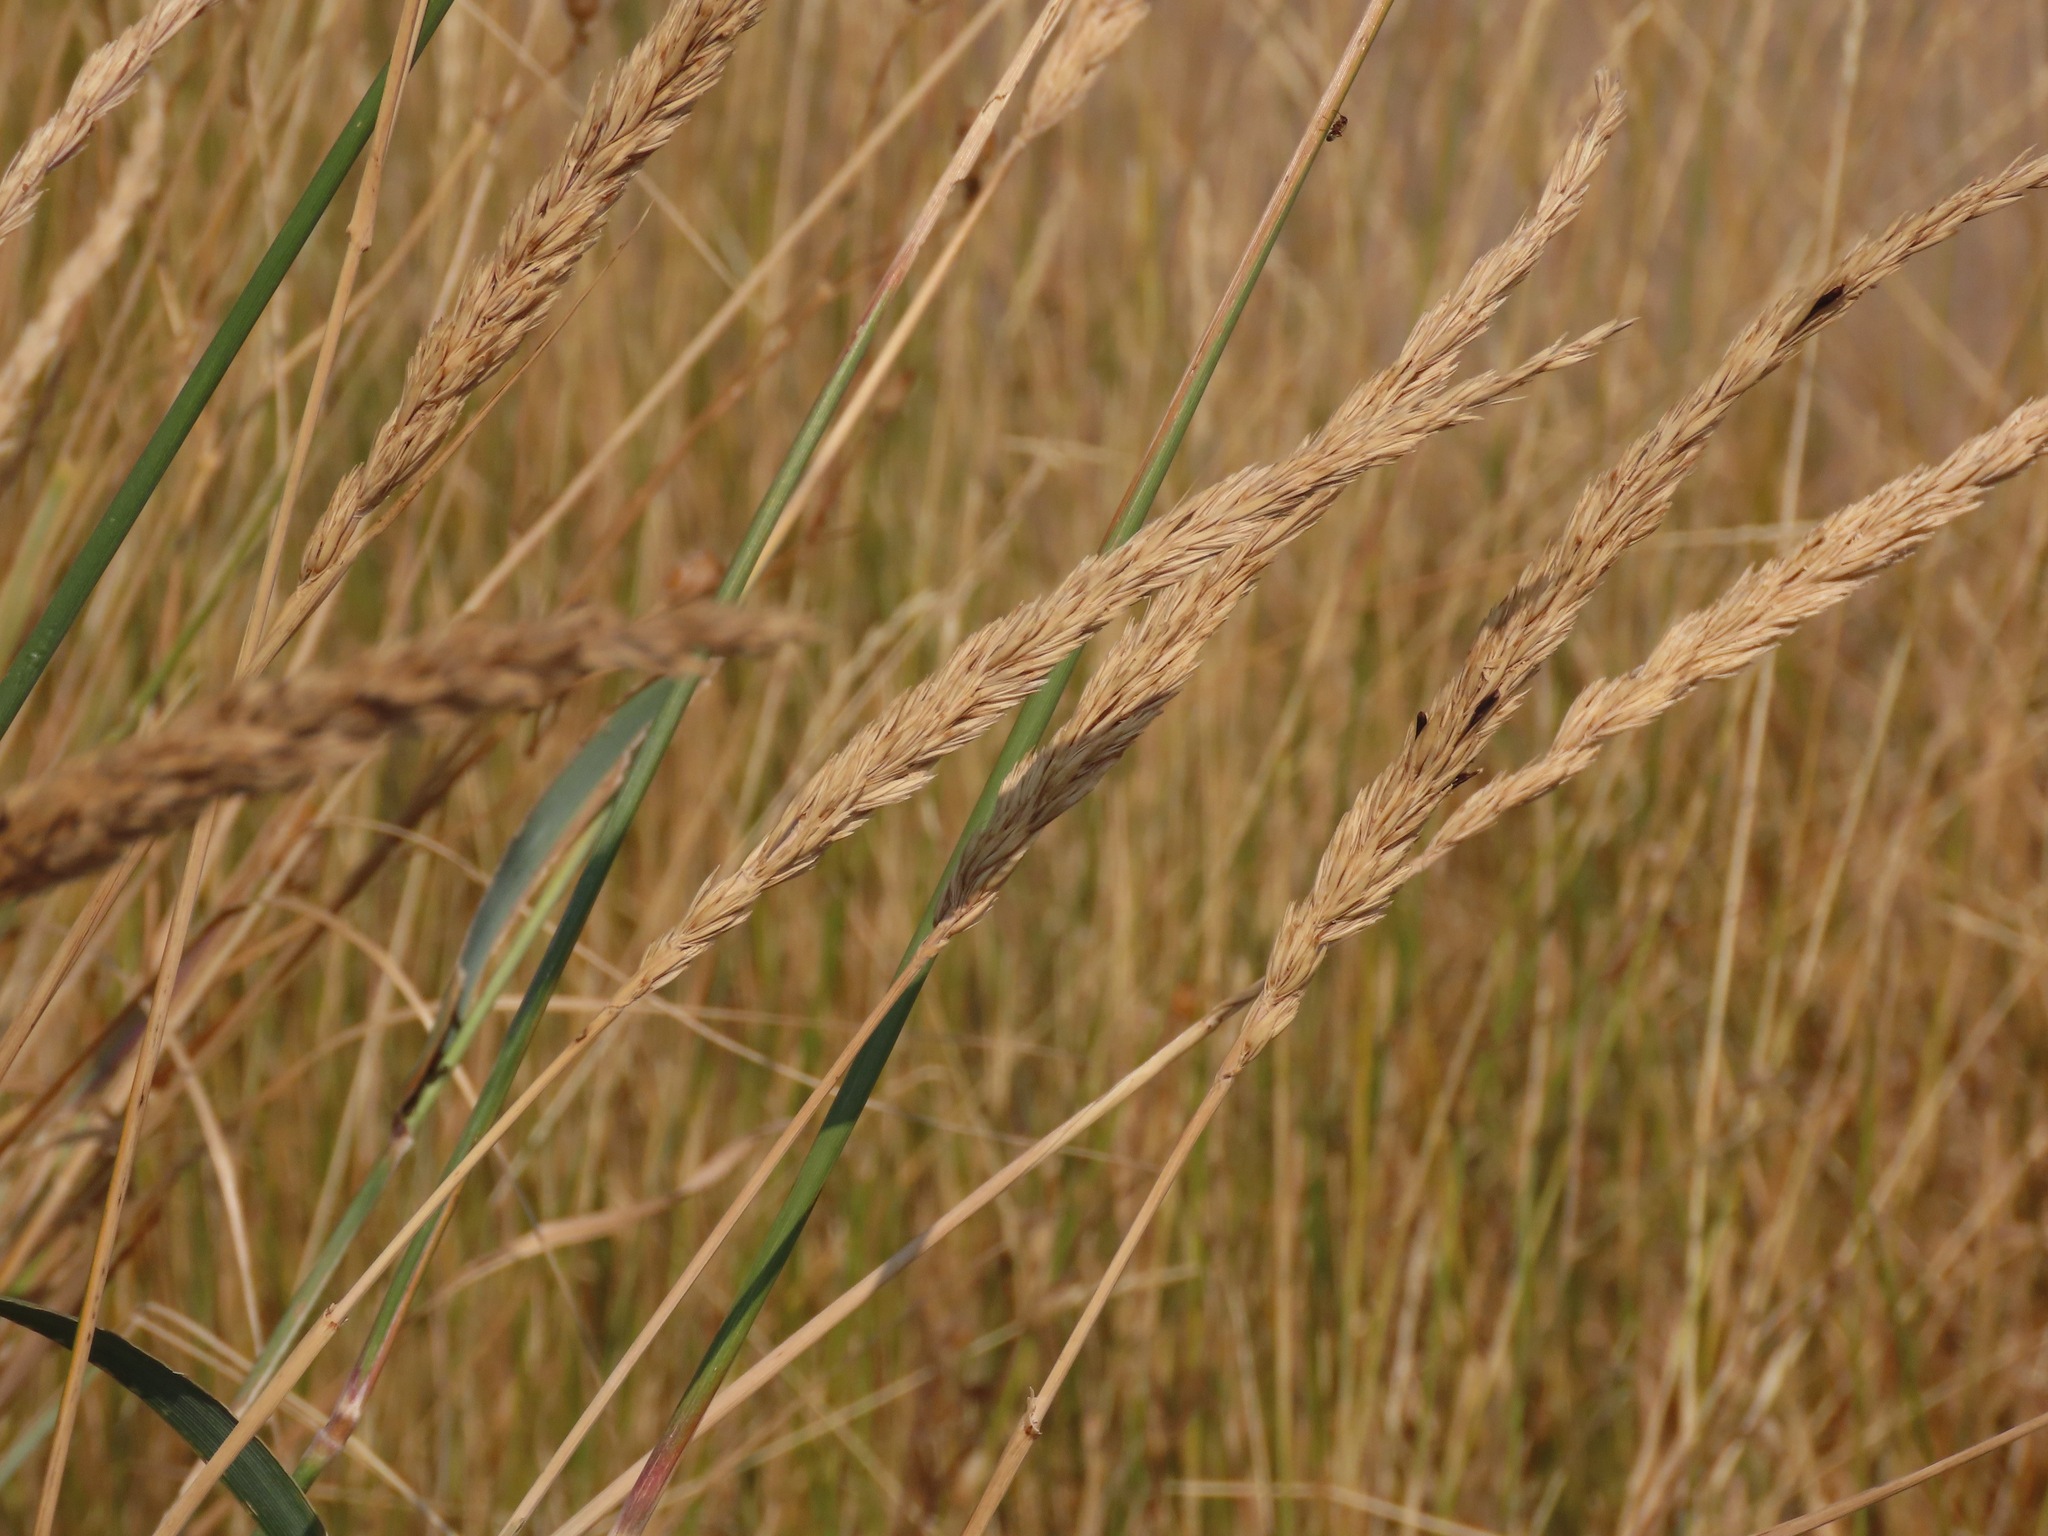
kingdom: Plantae
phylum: Tracheophyta
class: Liliopsida
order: Poales
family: Poaceae
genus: Leymus
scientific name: Leymus cinereus
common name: Basin wild rye
